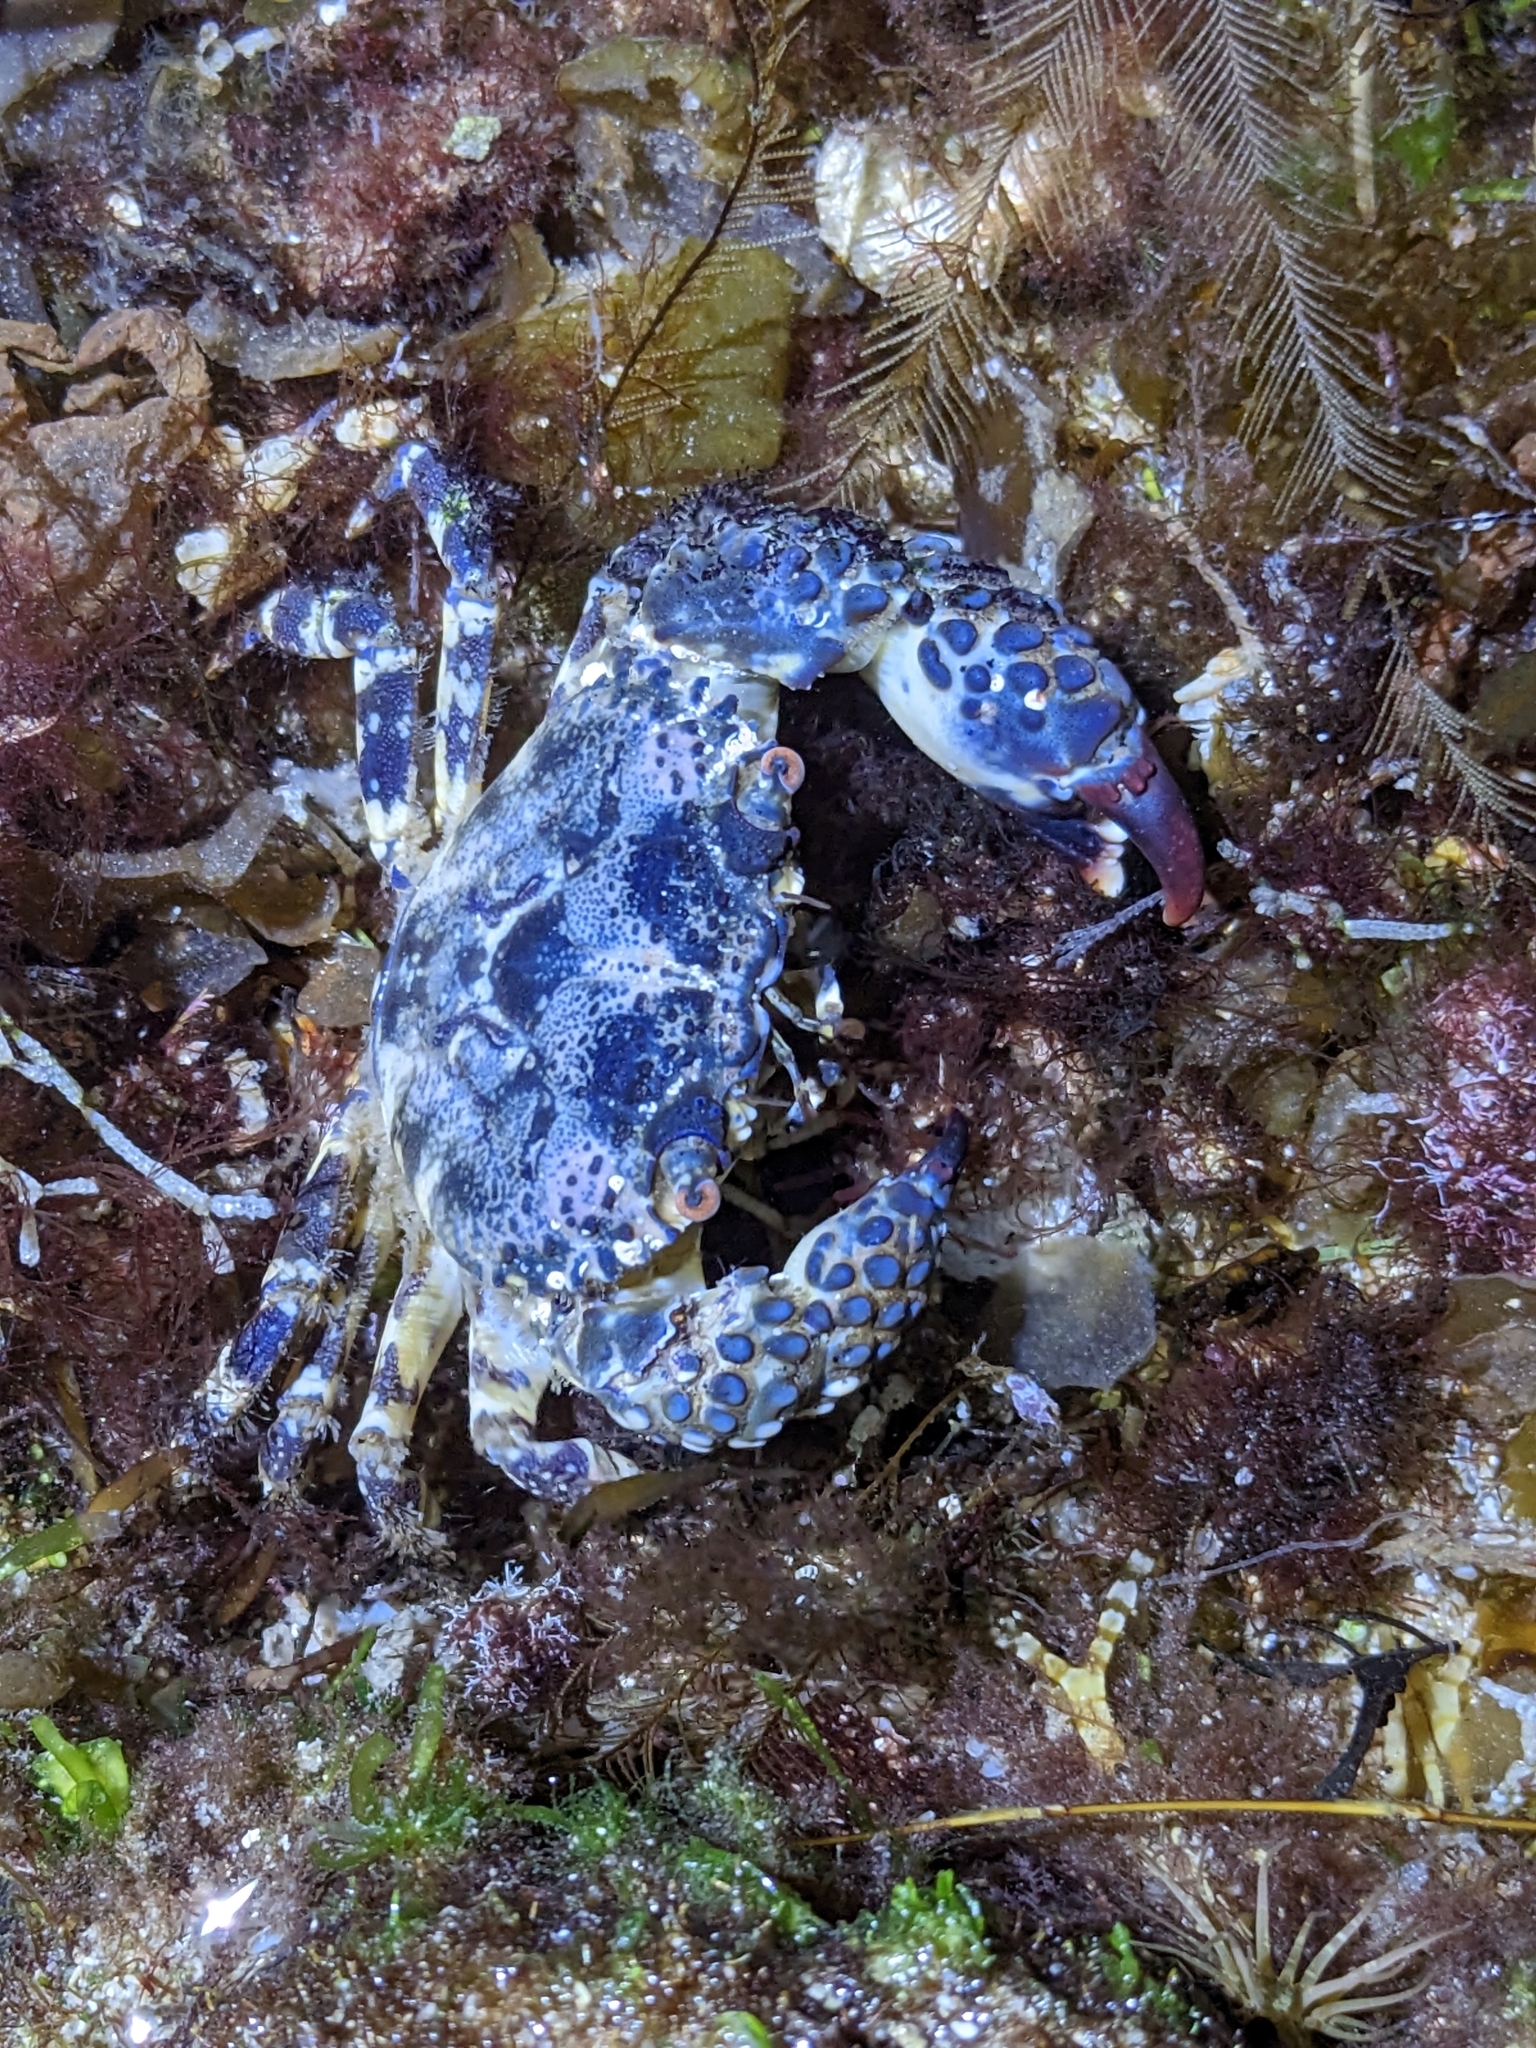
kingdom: Animalia
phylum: Arthropoda
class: Malacostraca
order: Decapoda
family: Eriphiidae
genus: Eriphia
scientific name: Eriphia squamata
